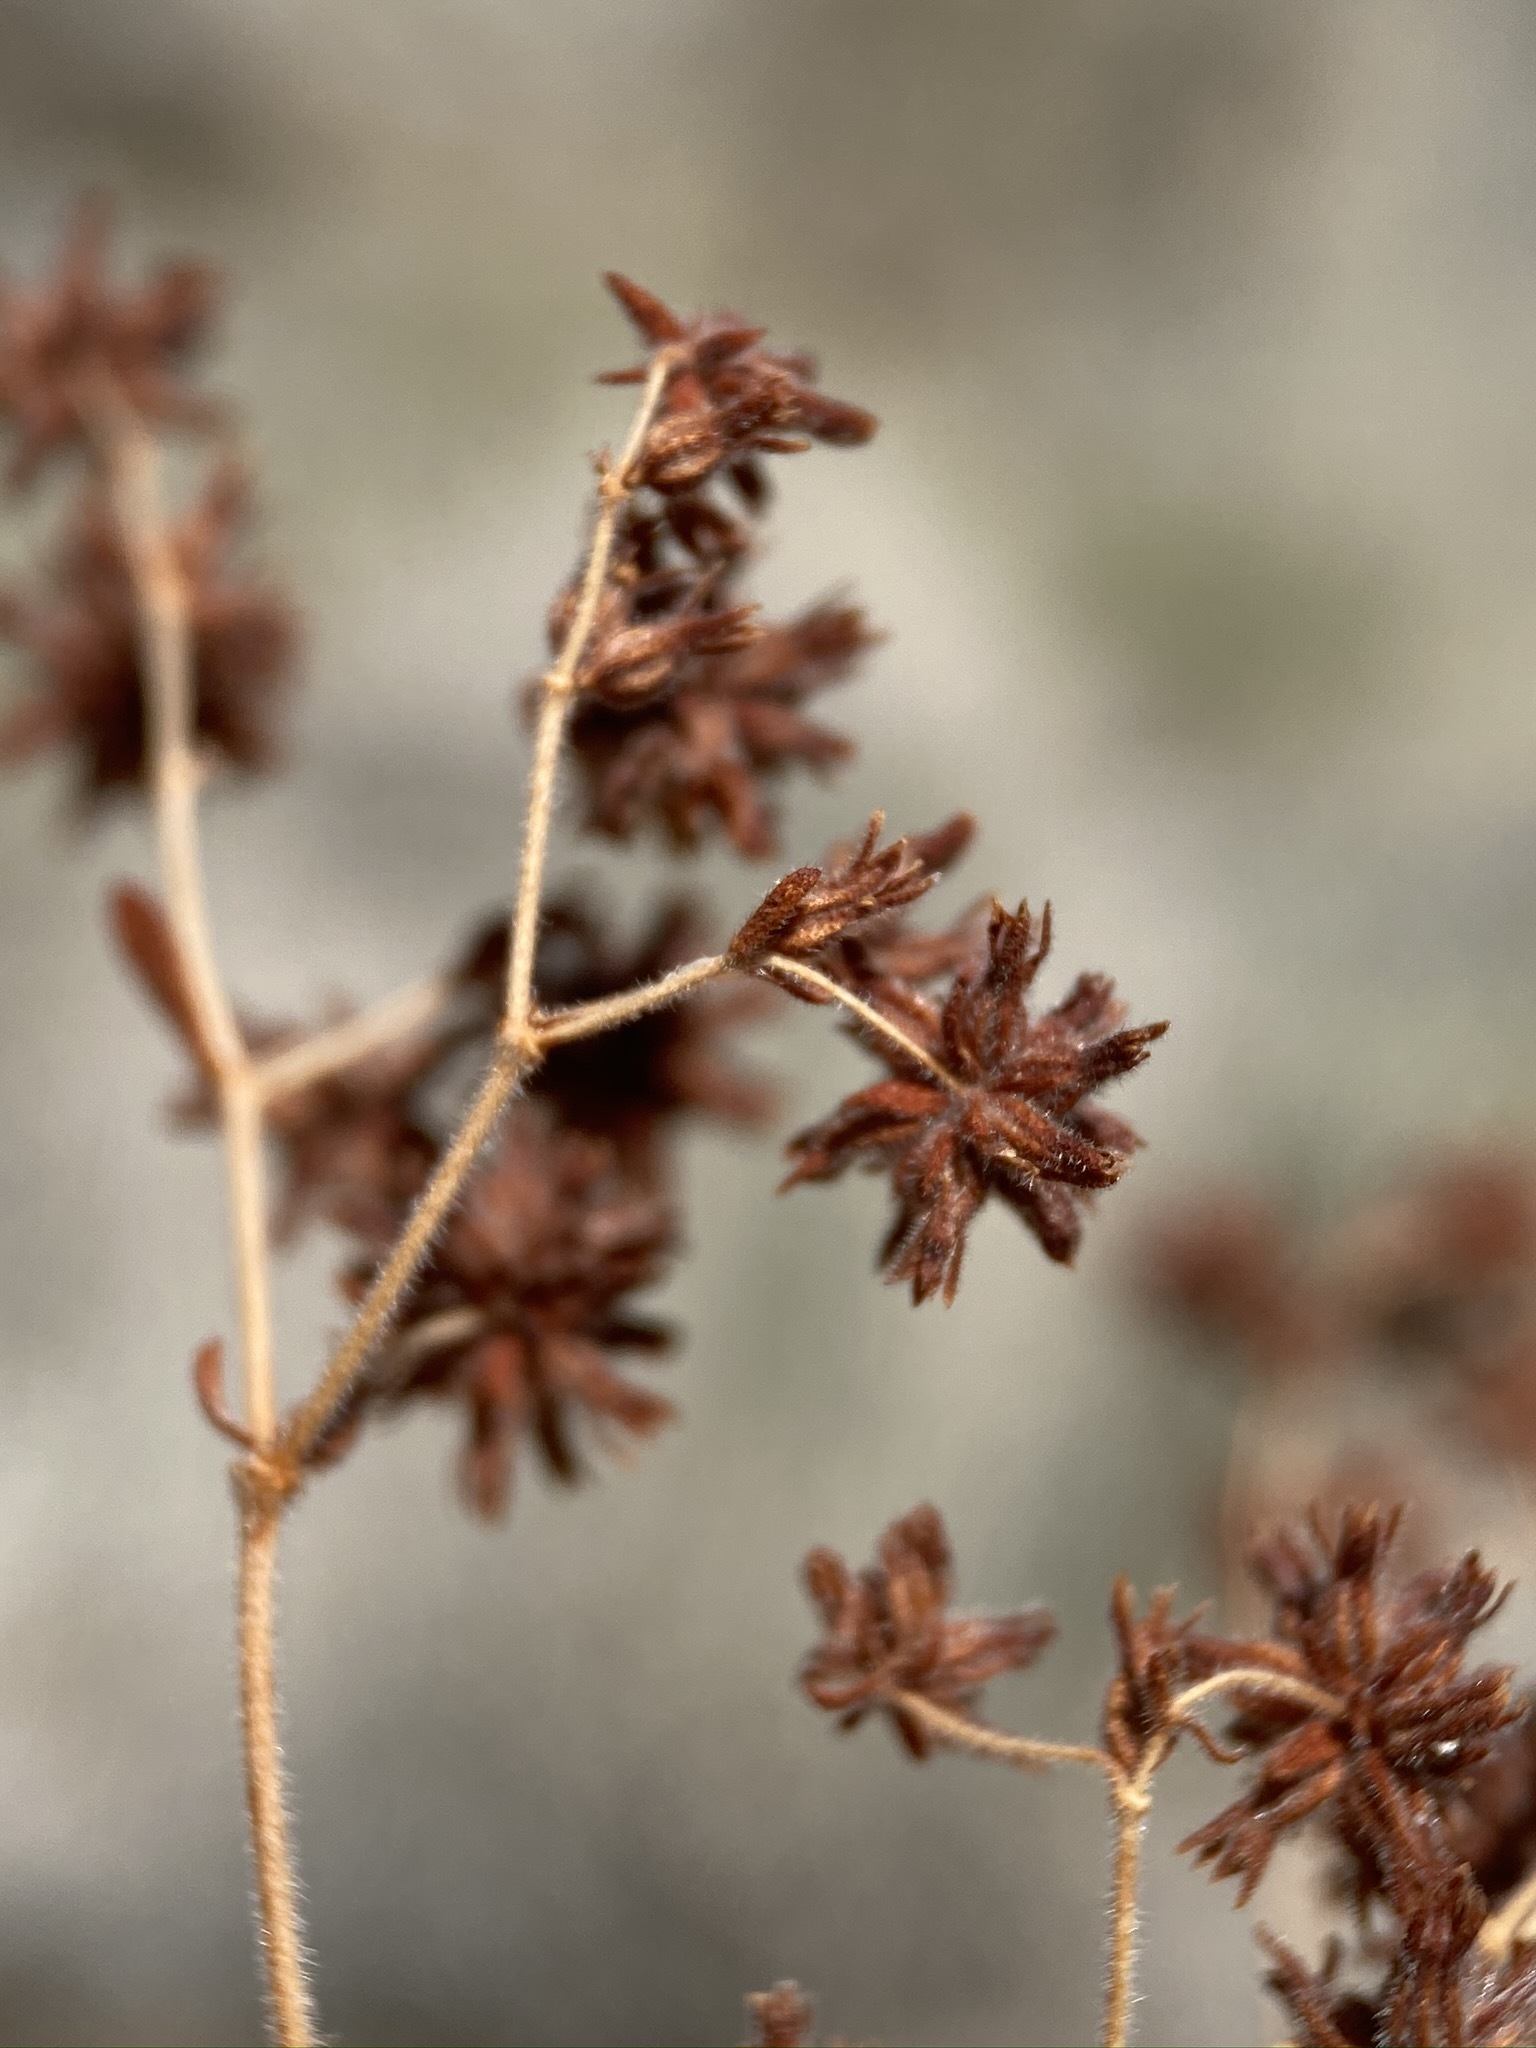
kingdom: Plantae
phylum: Tracheophyta
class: Magnoliopsida
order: Caryophyllales
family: Polygonaceae
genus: Dedeckera
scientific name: Dedeckera eurekensis
